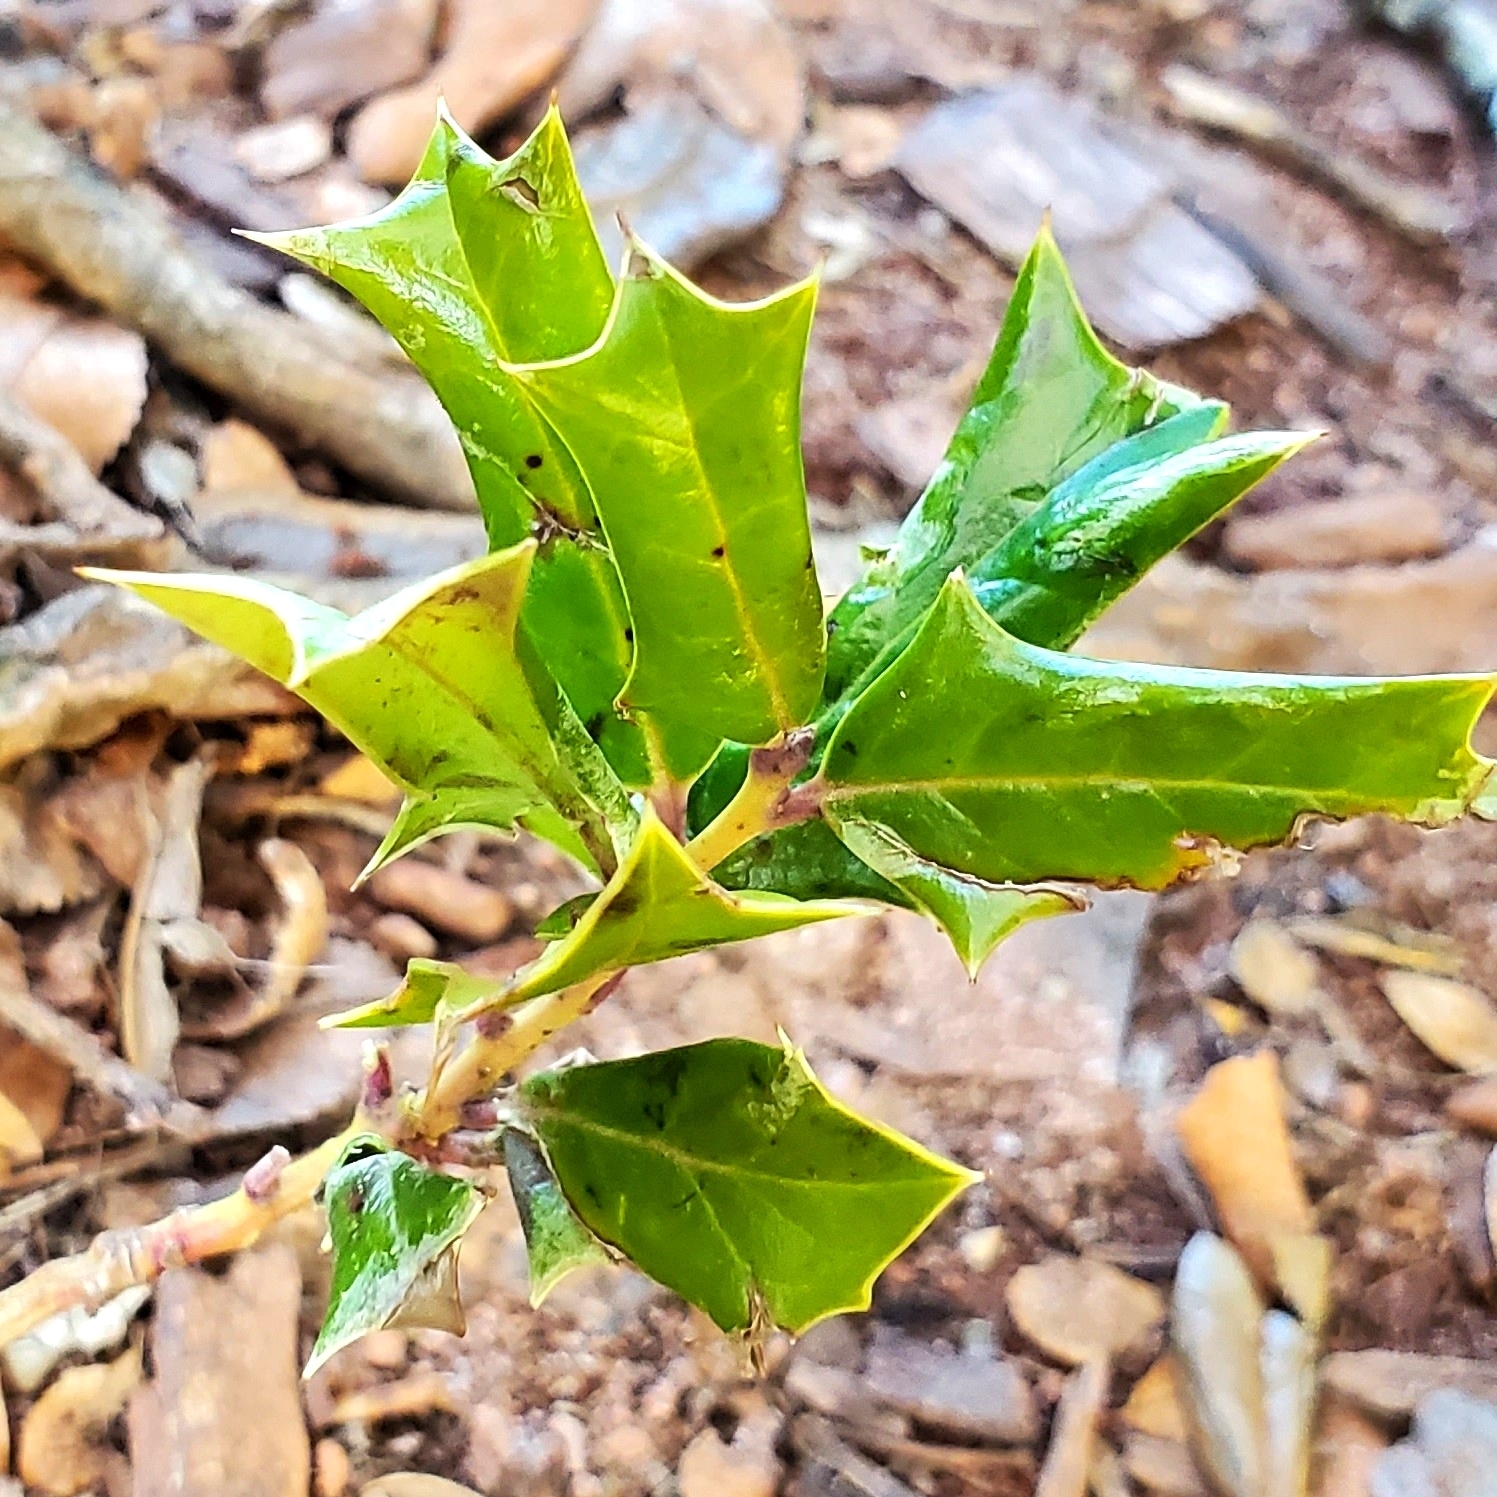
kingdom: Plantae
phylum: Tracheophyta
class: Magnoliopsida
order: Aquifoliales
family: Aquifoliaceae
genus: Ilex
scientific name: Ilex cornuta
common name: Chinese holly
